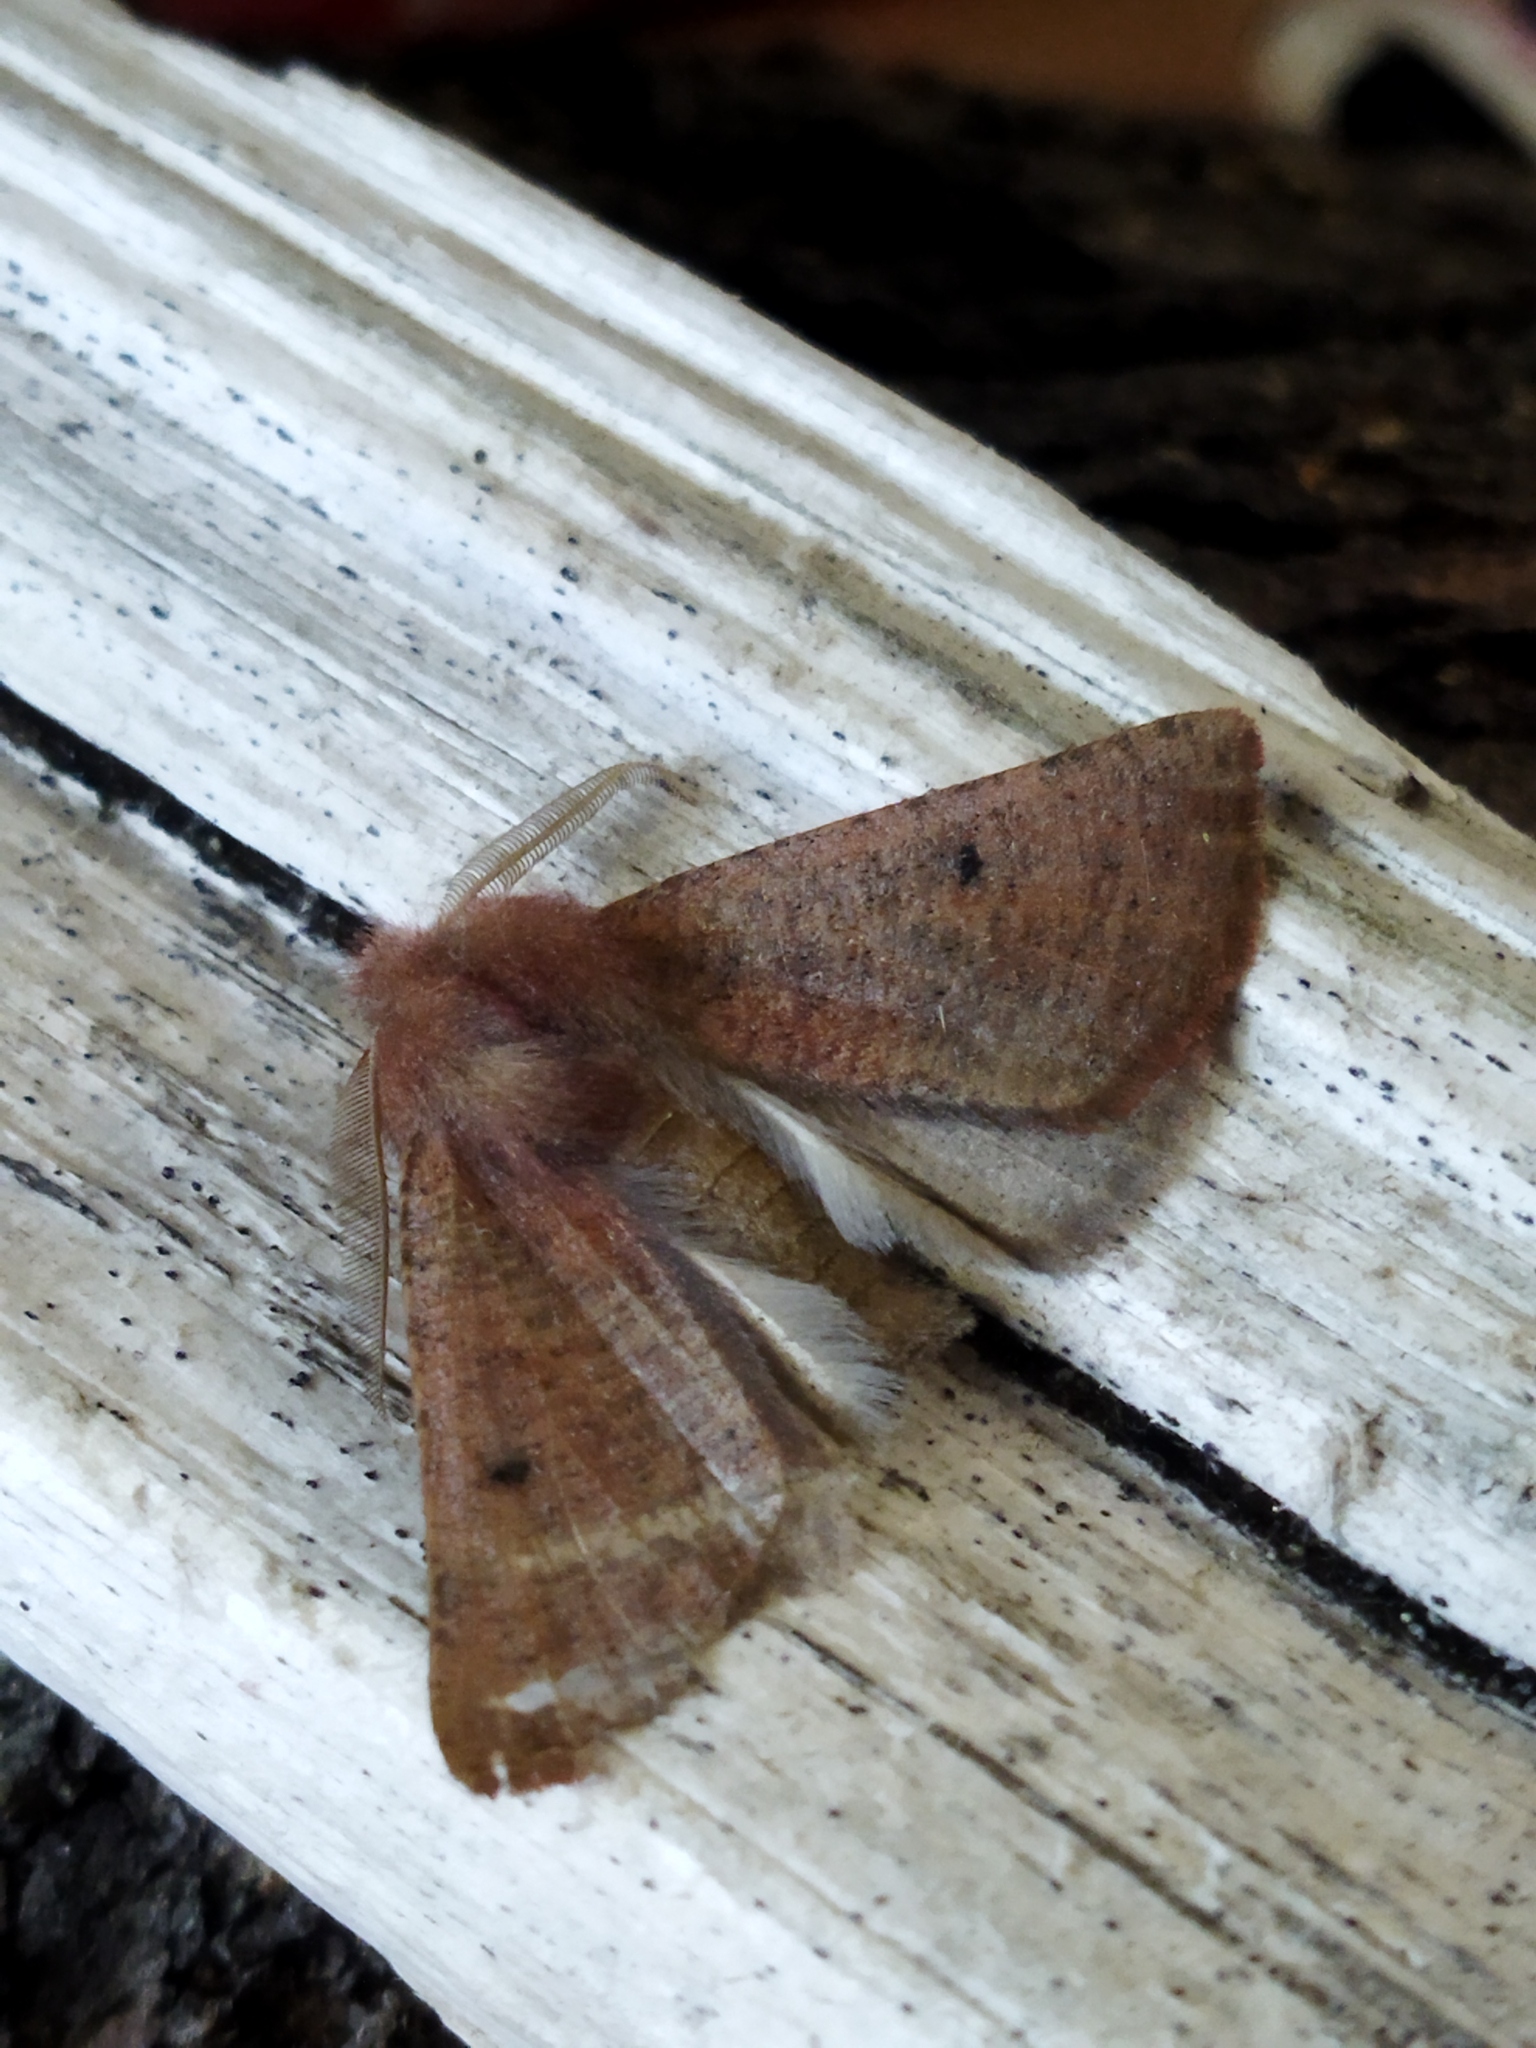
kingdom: Animalia
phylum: Arthropoda
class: Insecta
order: Lepidoptera
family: Geometridae
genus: Dasycorsa
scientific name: Dasycorsa modesta
